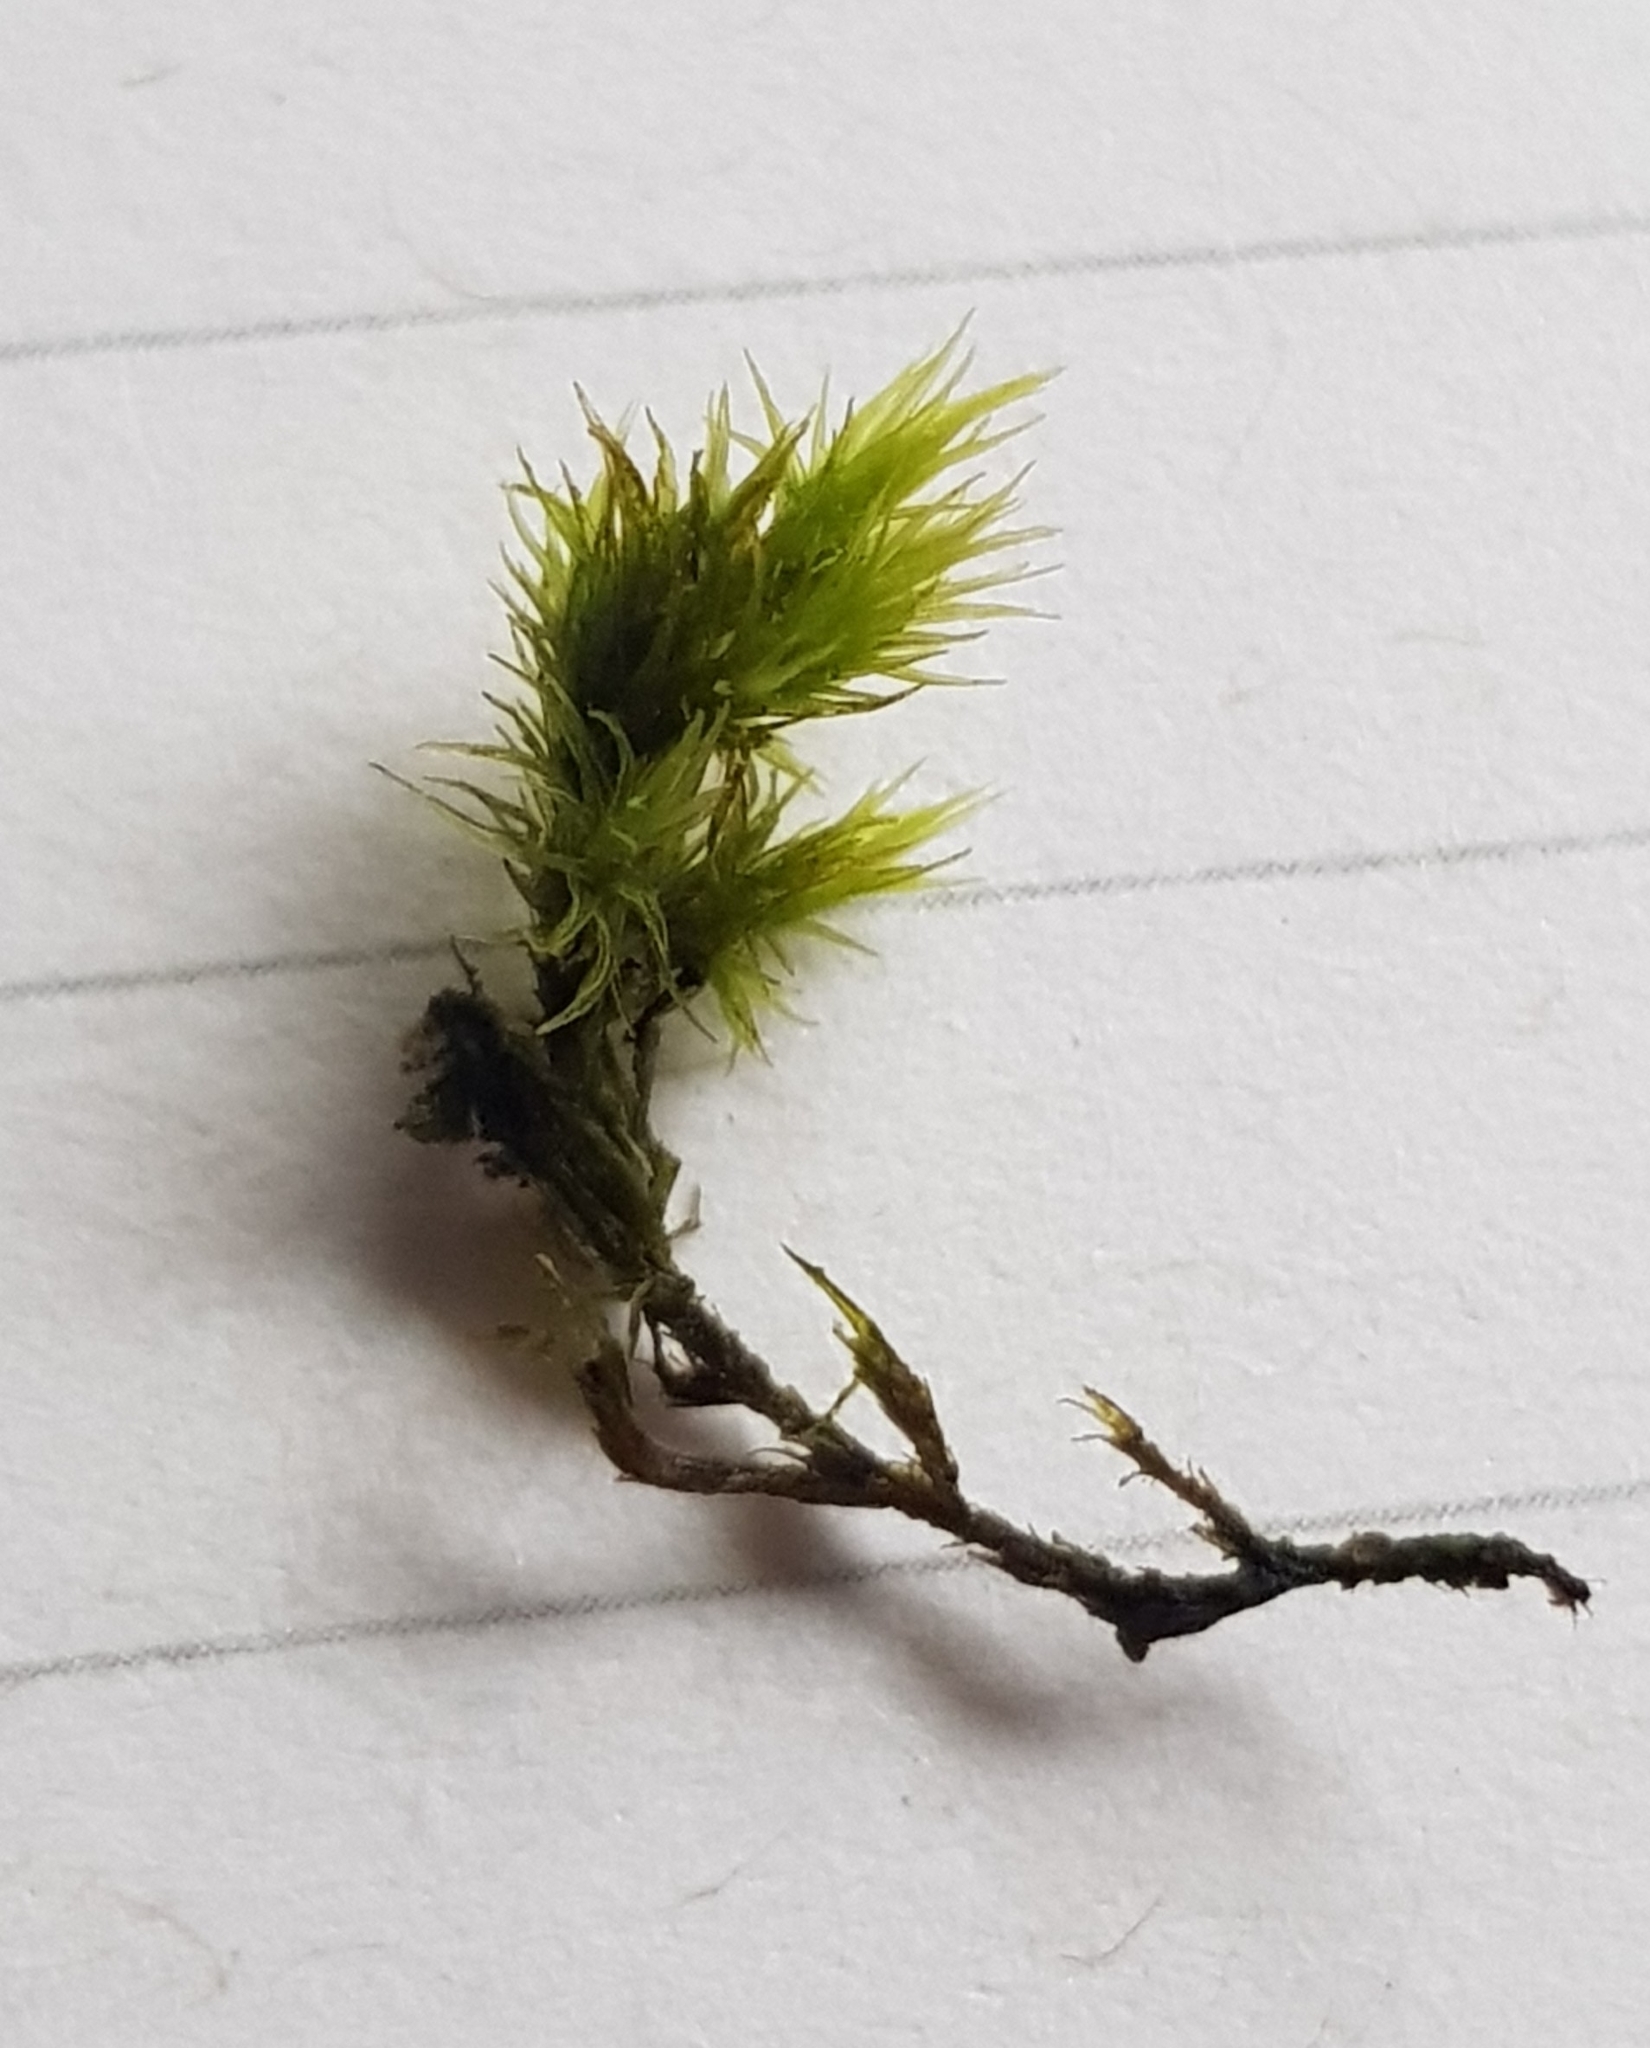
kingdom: Plantae
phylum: Bryophyta
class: Bryopsida
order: Grimmiales
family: Grimmiaceae
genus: Dilutineuron
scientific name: Dilutineuron fasciculare
